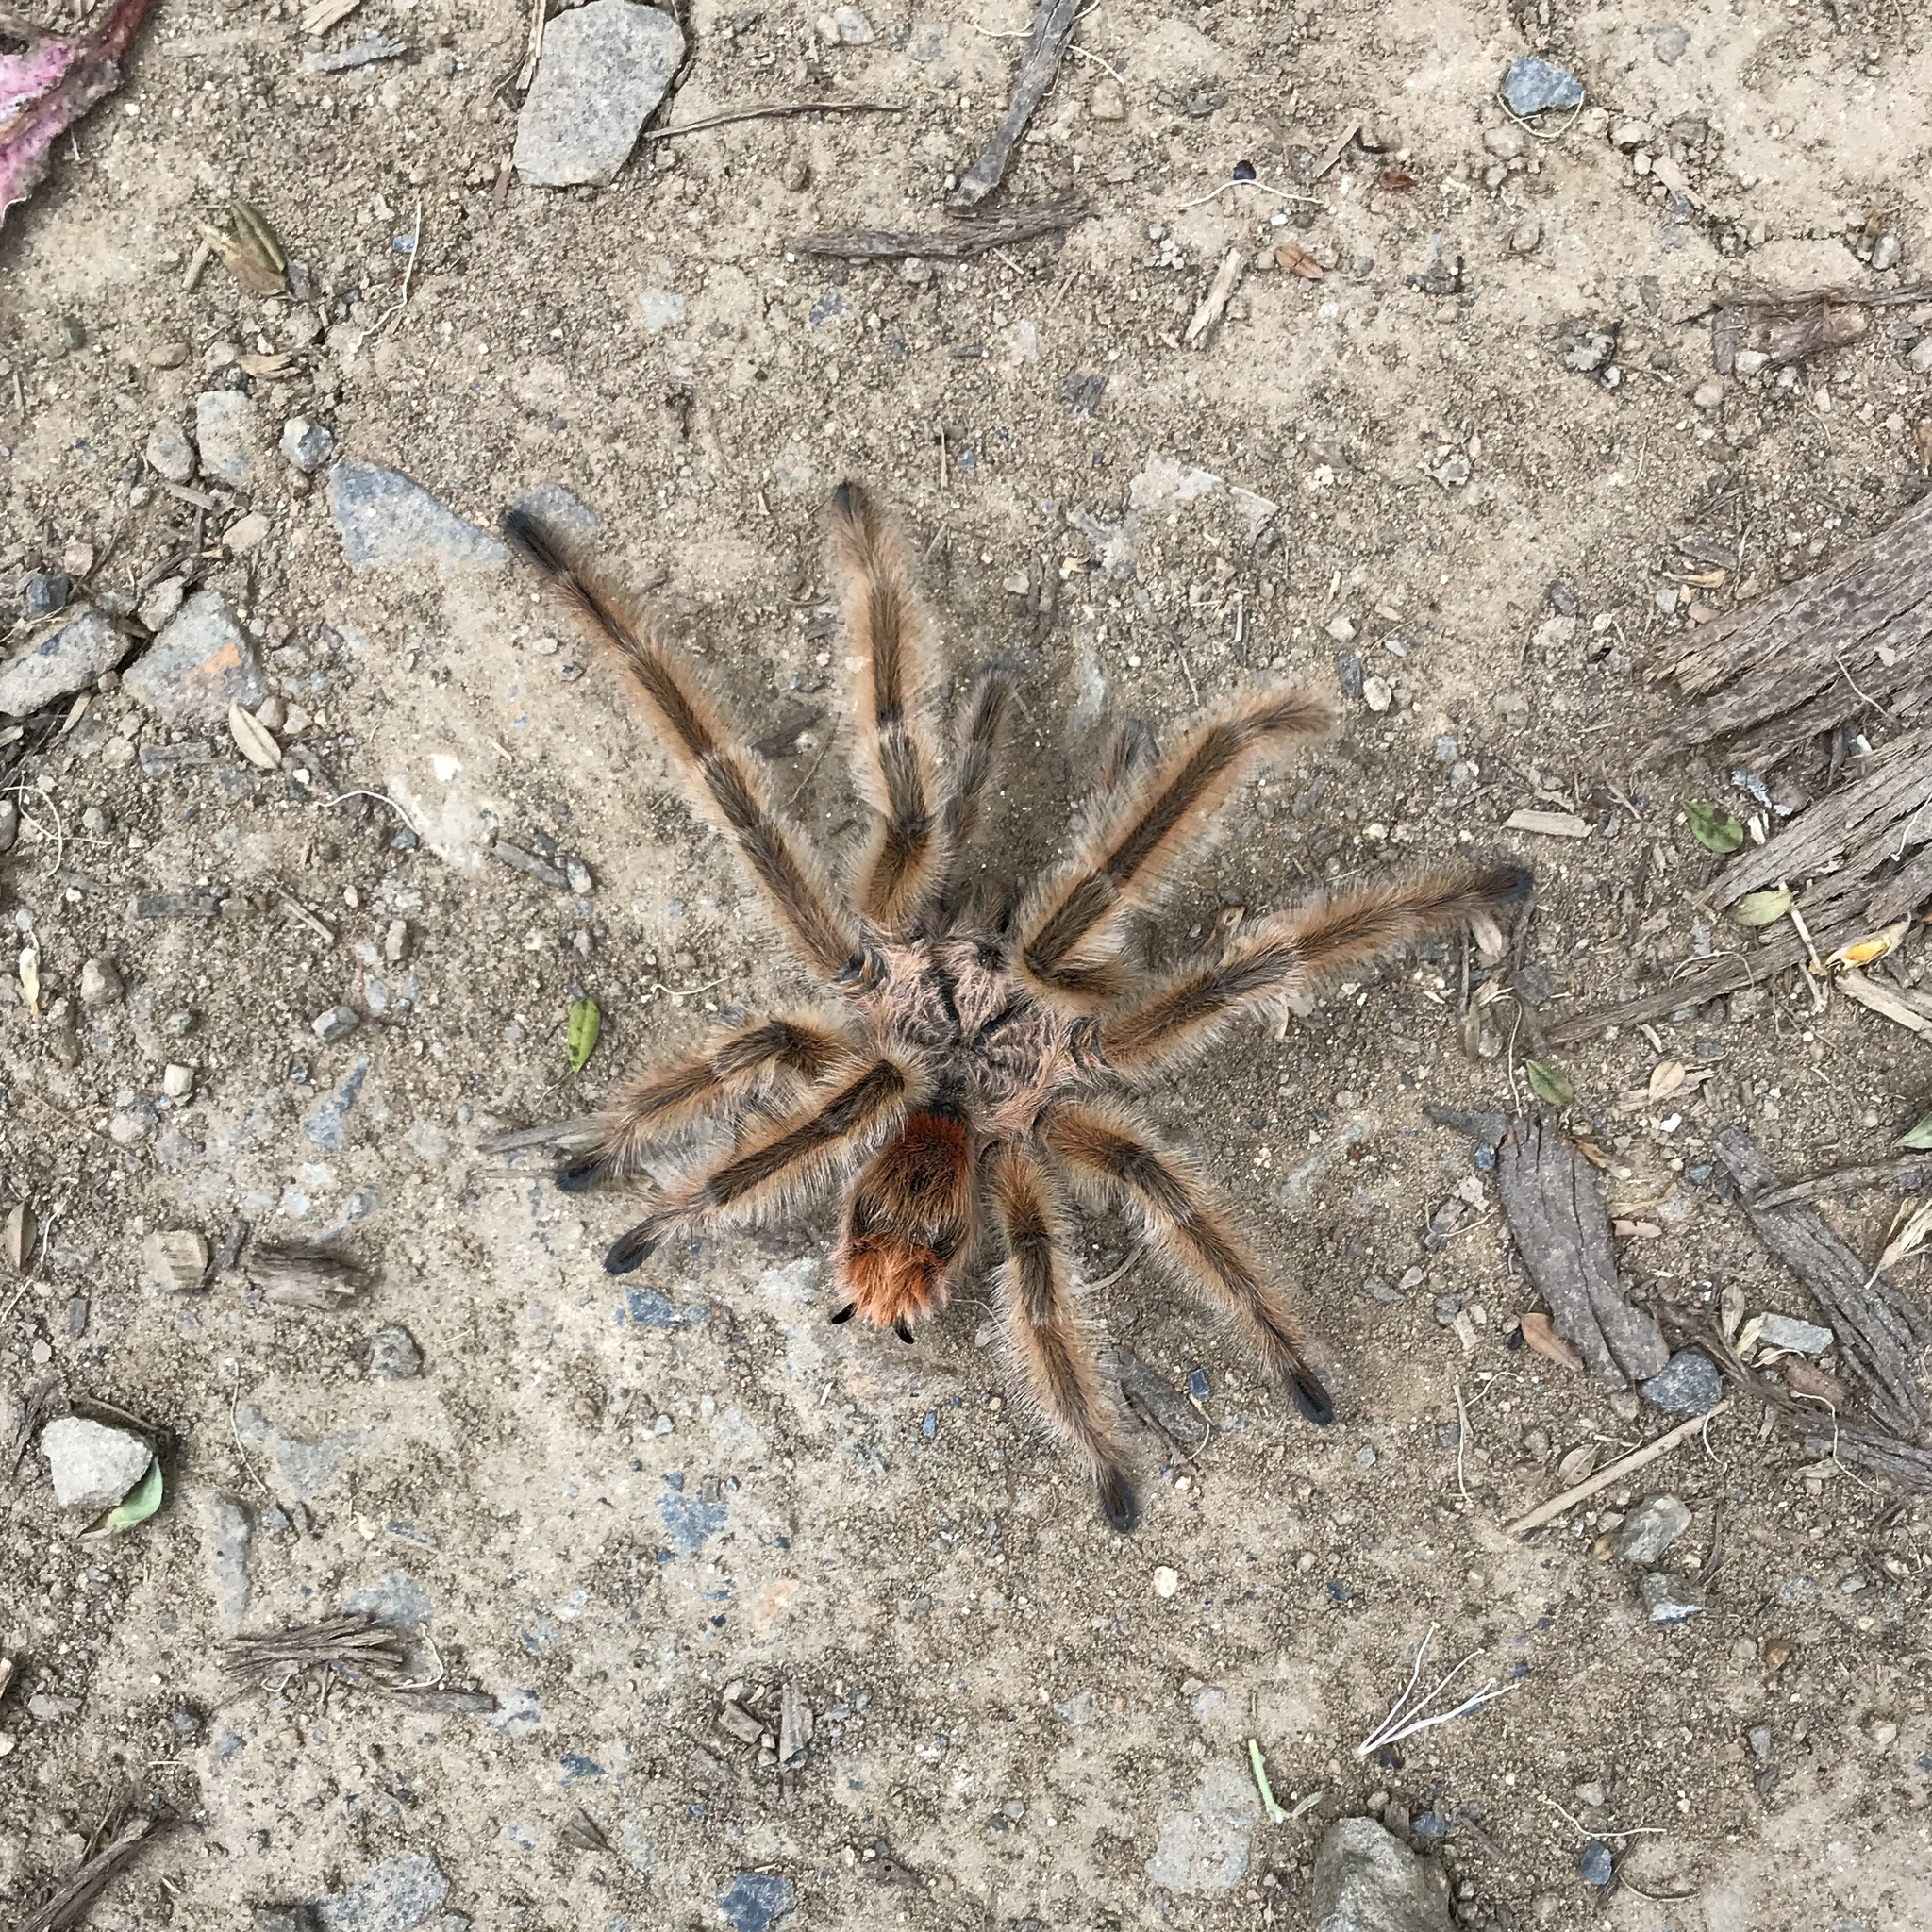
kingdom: Animalia
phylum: Arthropoda
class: Arachnida
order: Araneae
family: Theraphosidae
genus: Phrixotrichus
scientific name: Phrixotrichus vulpinus
